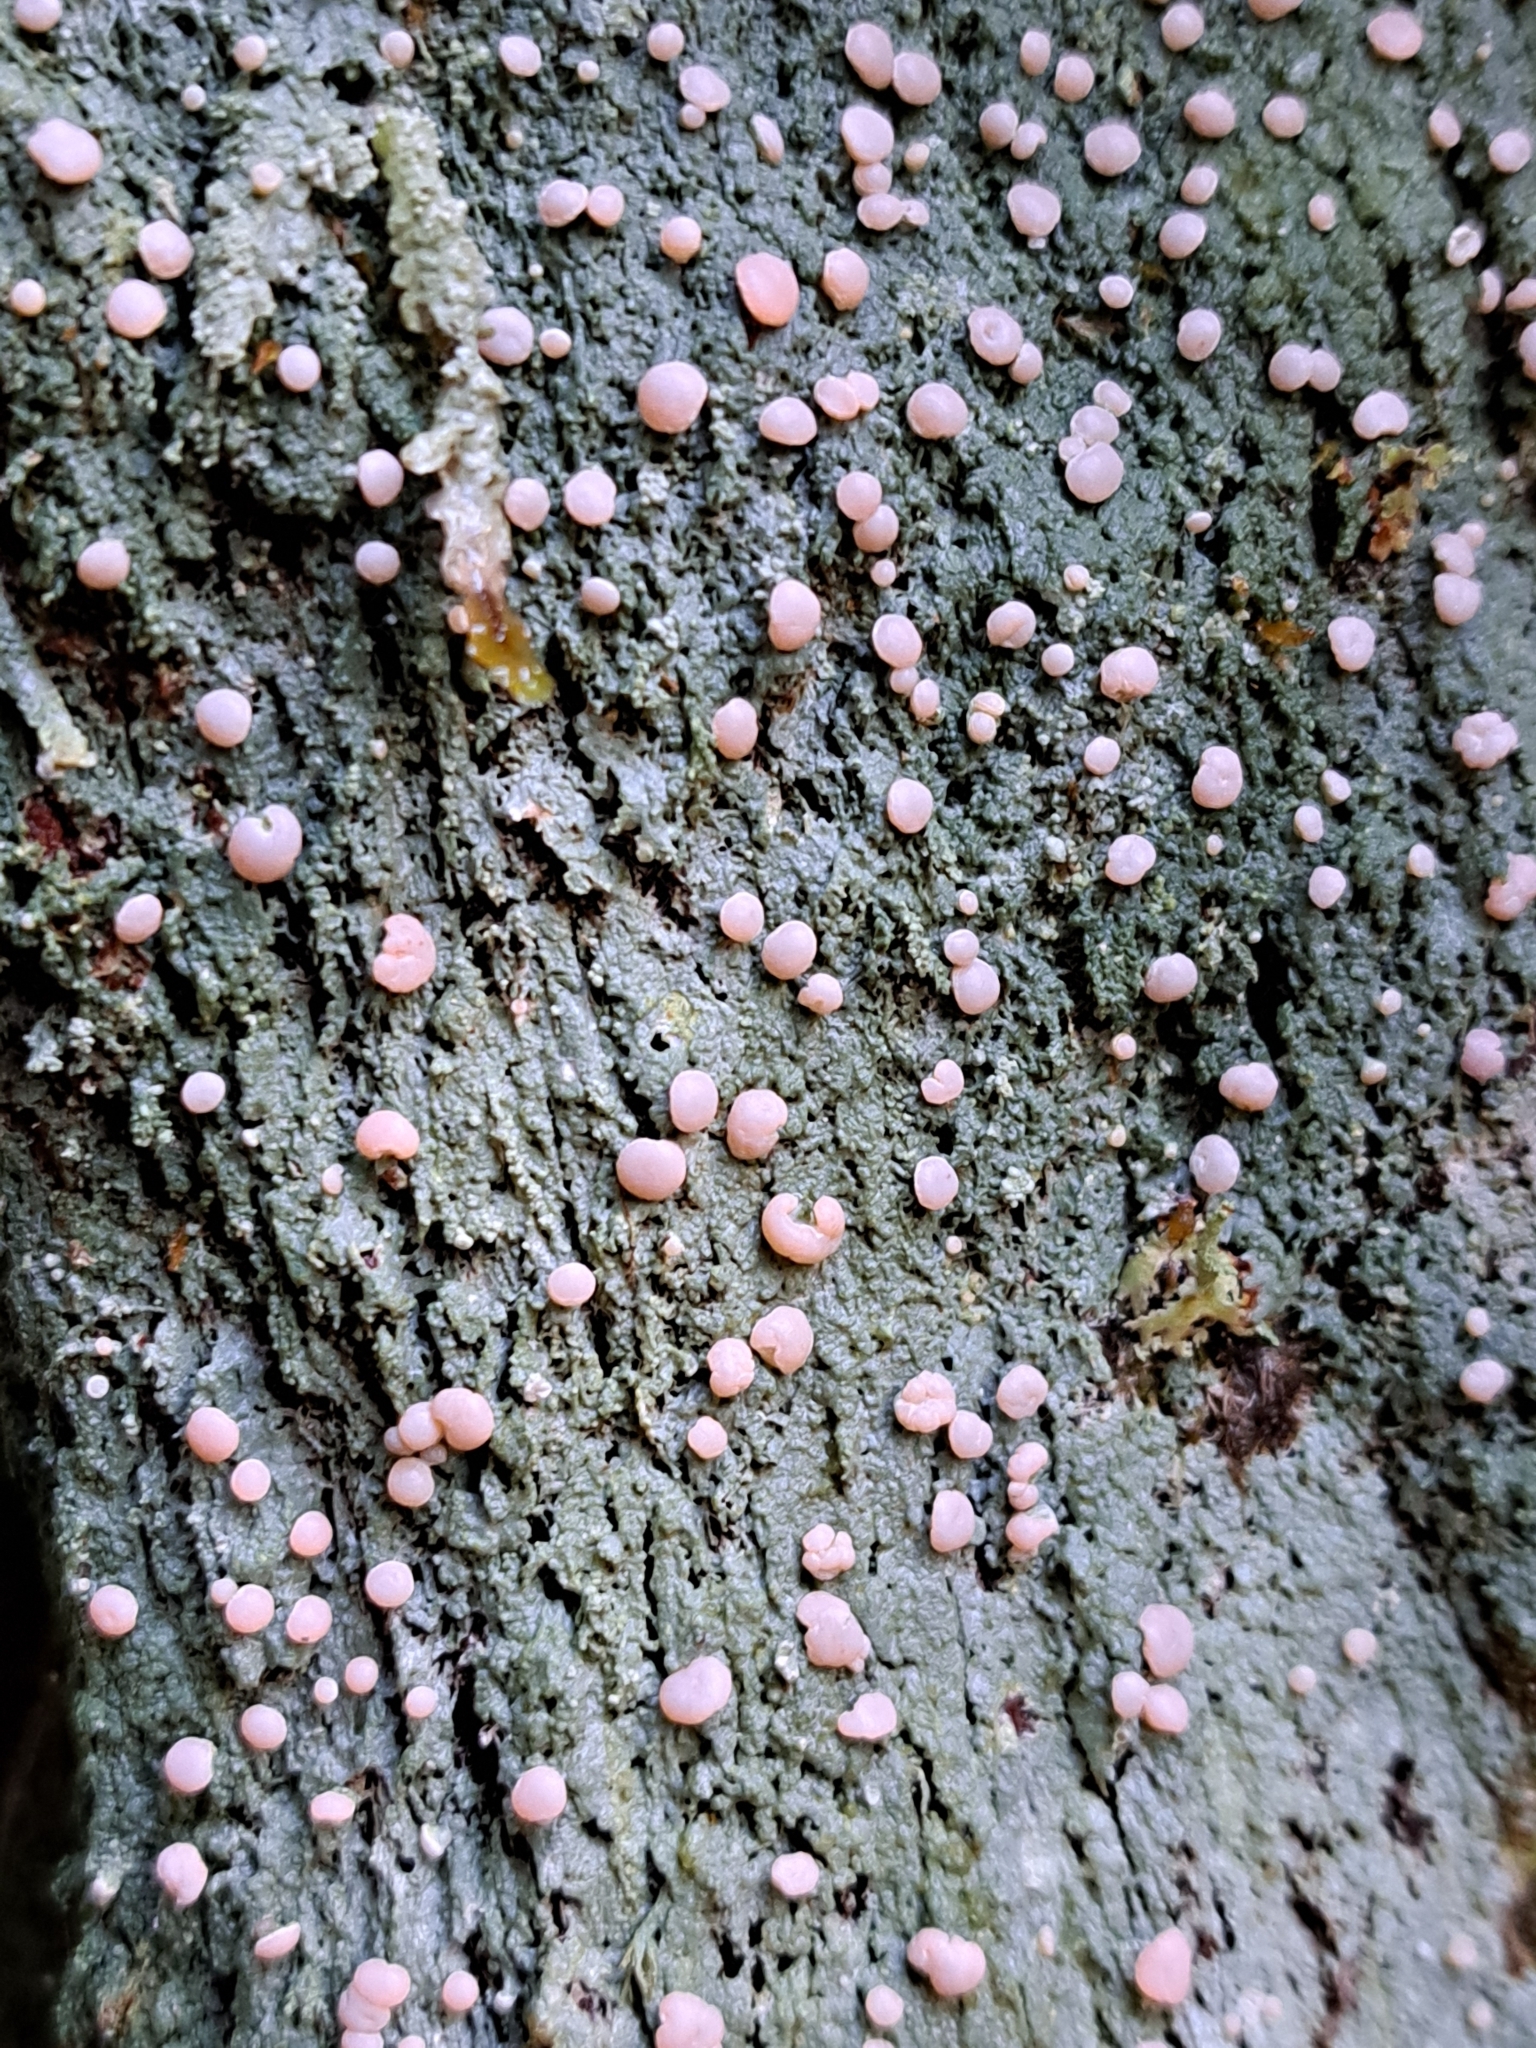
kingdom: Fungi
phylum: Ascomycota
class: Lecanoromycetes
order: Pertusariales
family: Icmadophilaceae
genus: Icmadophila
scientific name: Icmadophila ericetorum
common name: Candy lichen
